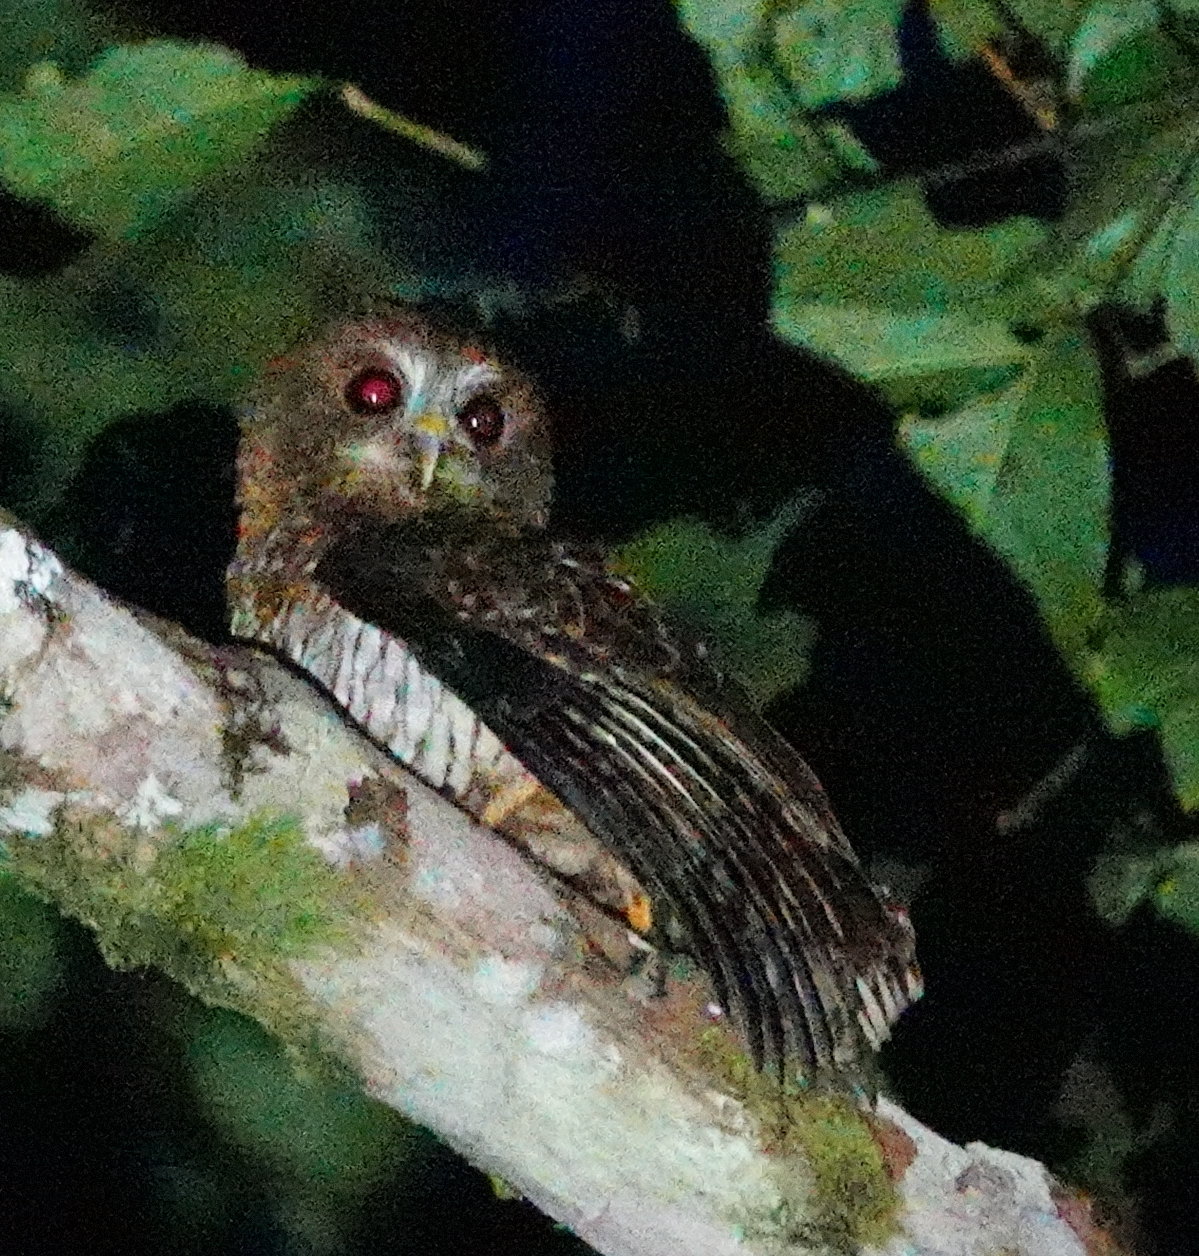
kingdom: Animalia
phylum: Chordata
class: Aves
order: Strigiformes
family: Strigidae
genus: Ninox
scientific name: Ninox squamipila
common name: Hantu boobook
